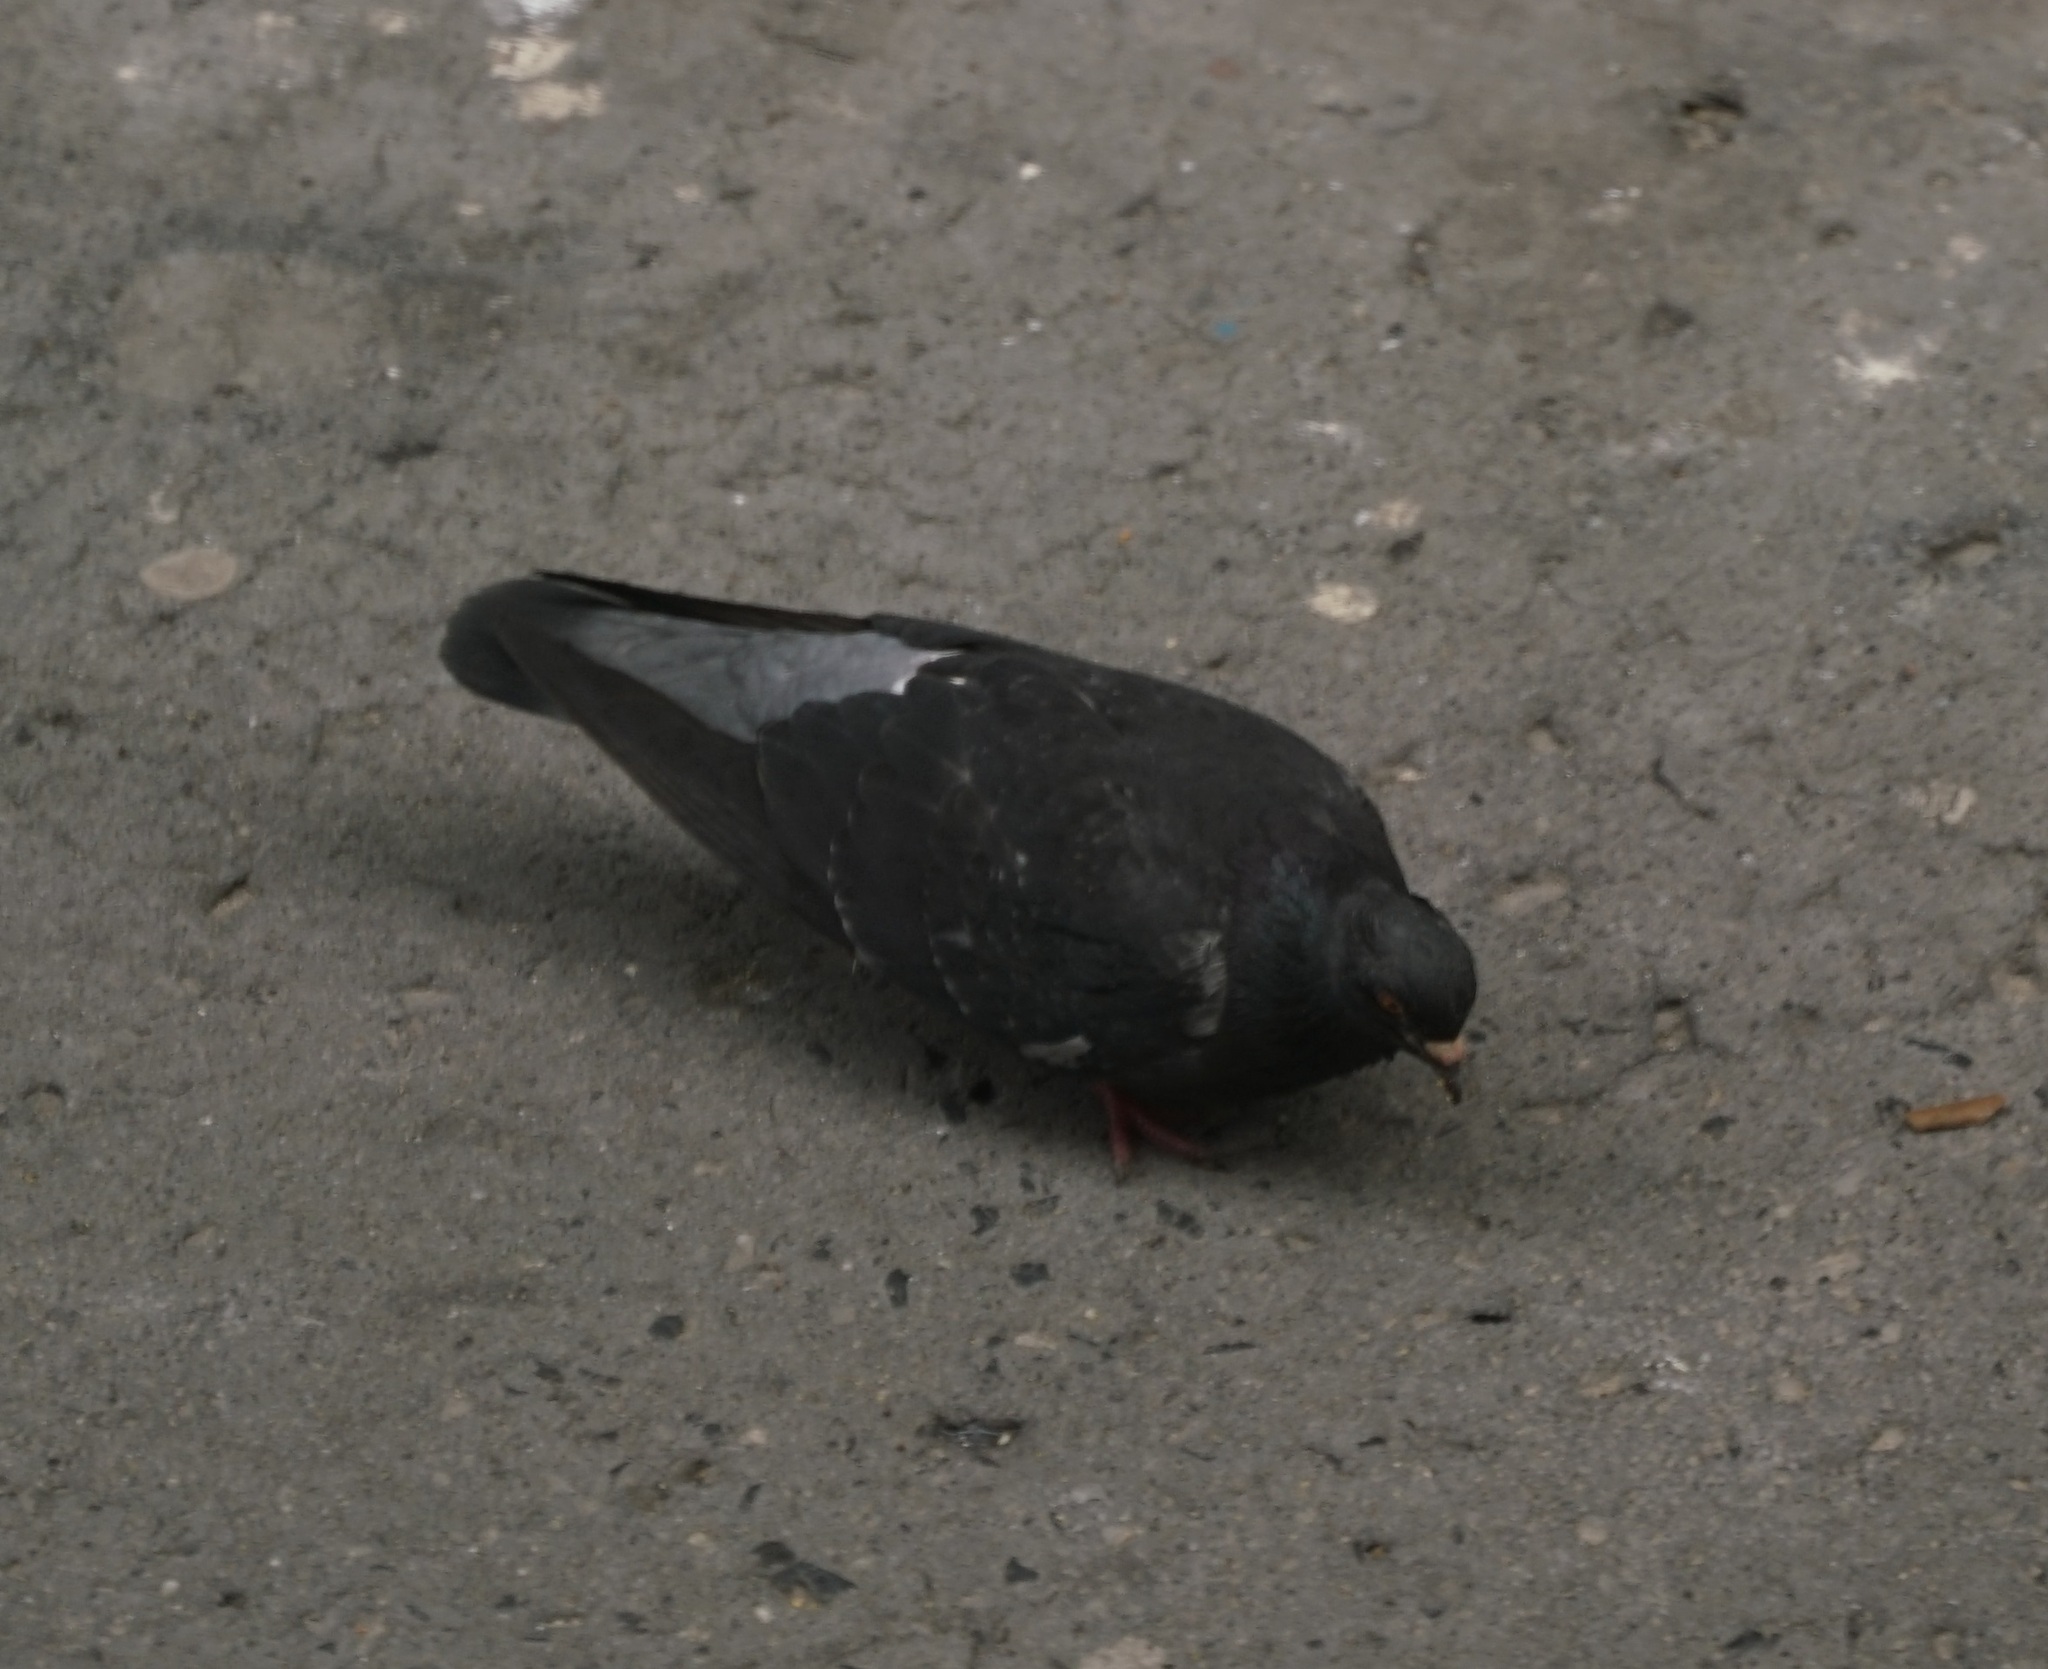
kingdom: Animalia
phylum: Chordata
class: Aves
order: Columbiformes
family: Columbidae
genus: Columba
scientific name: Columba livia
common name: Rock pigeon
